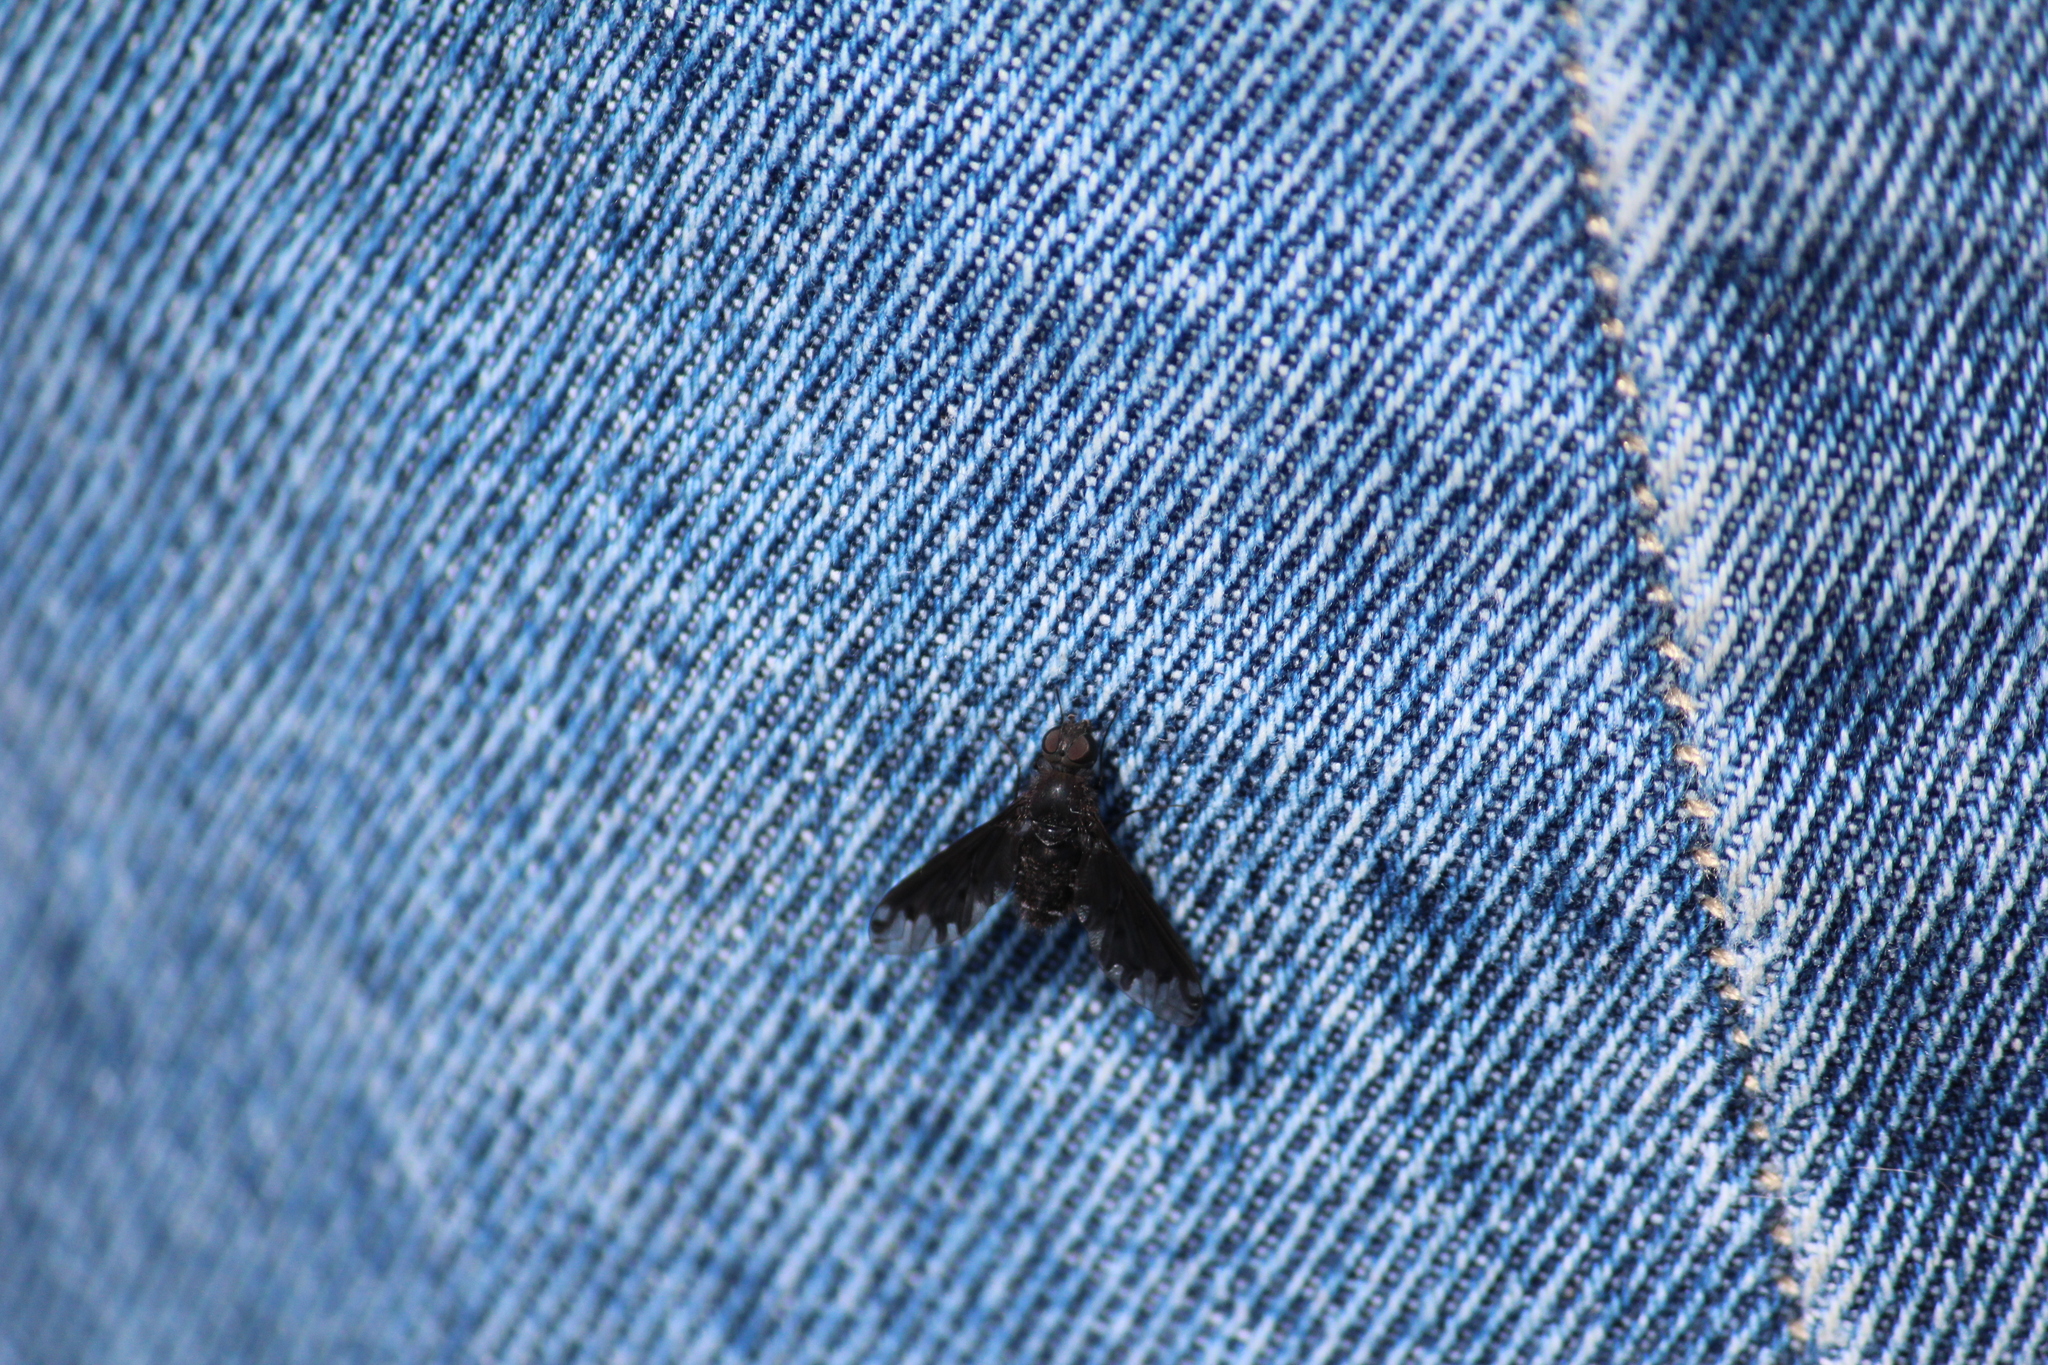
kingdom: Animalia
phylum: Arthropoda
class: Insecta
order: Diptera
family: Bombyliidae
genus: Anthrax
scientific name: Anthrax anthrax
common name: Anthracite bee-fly
